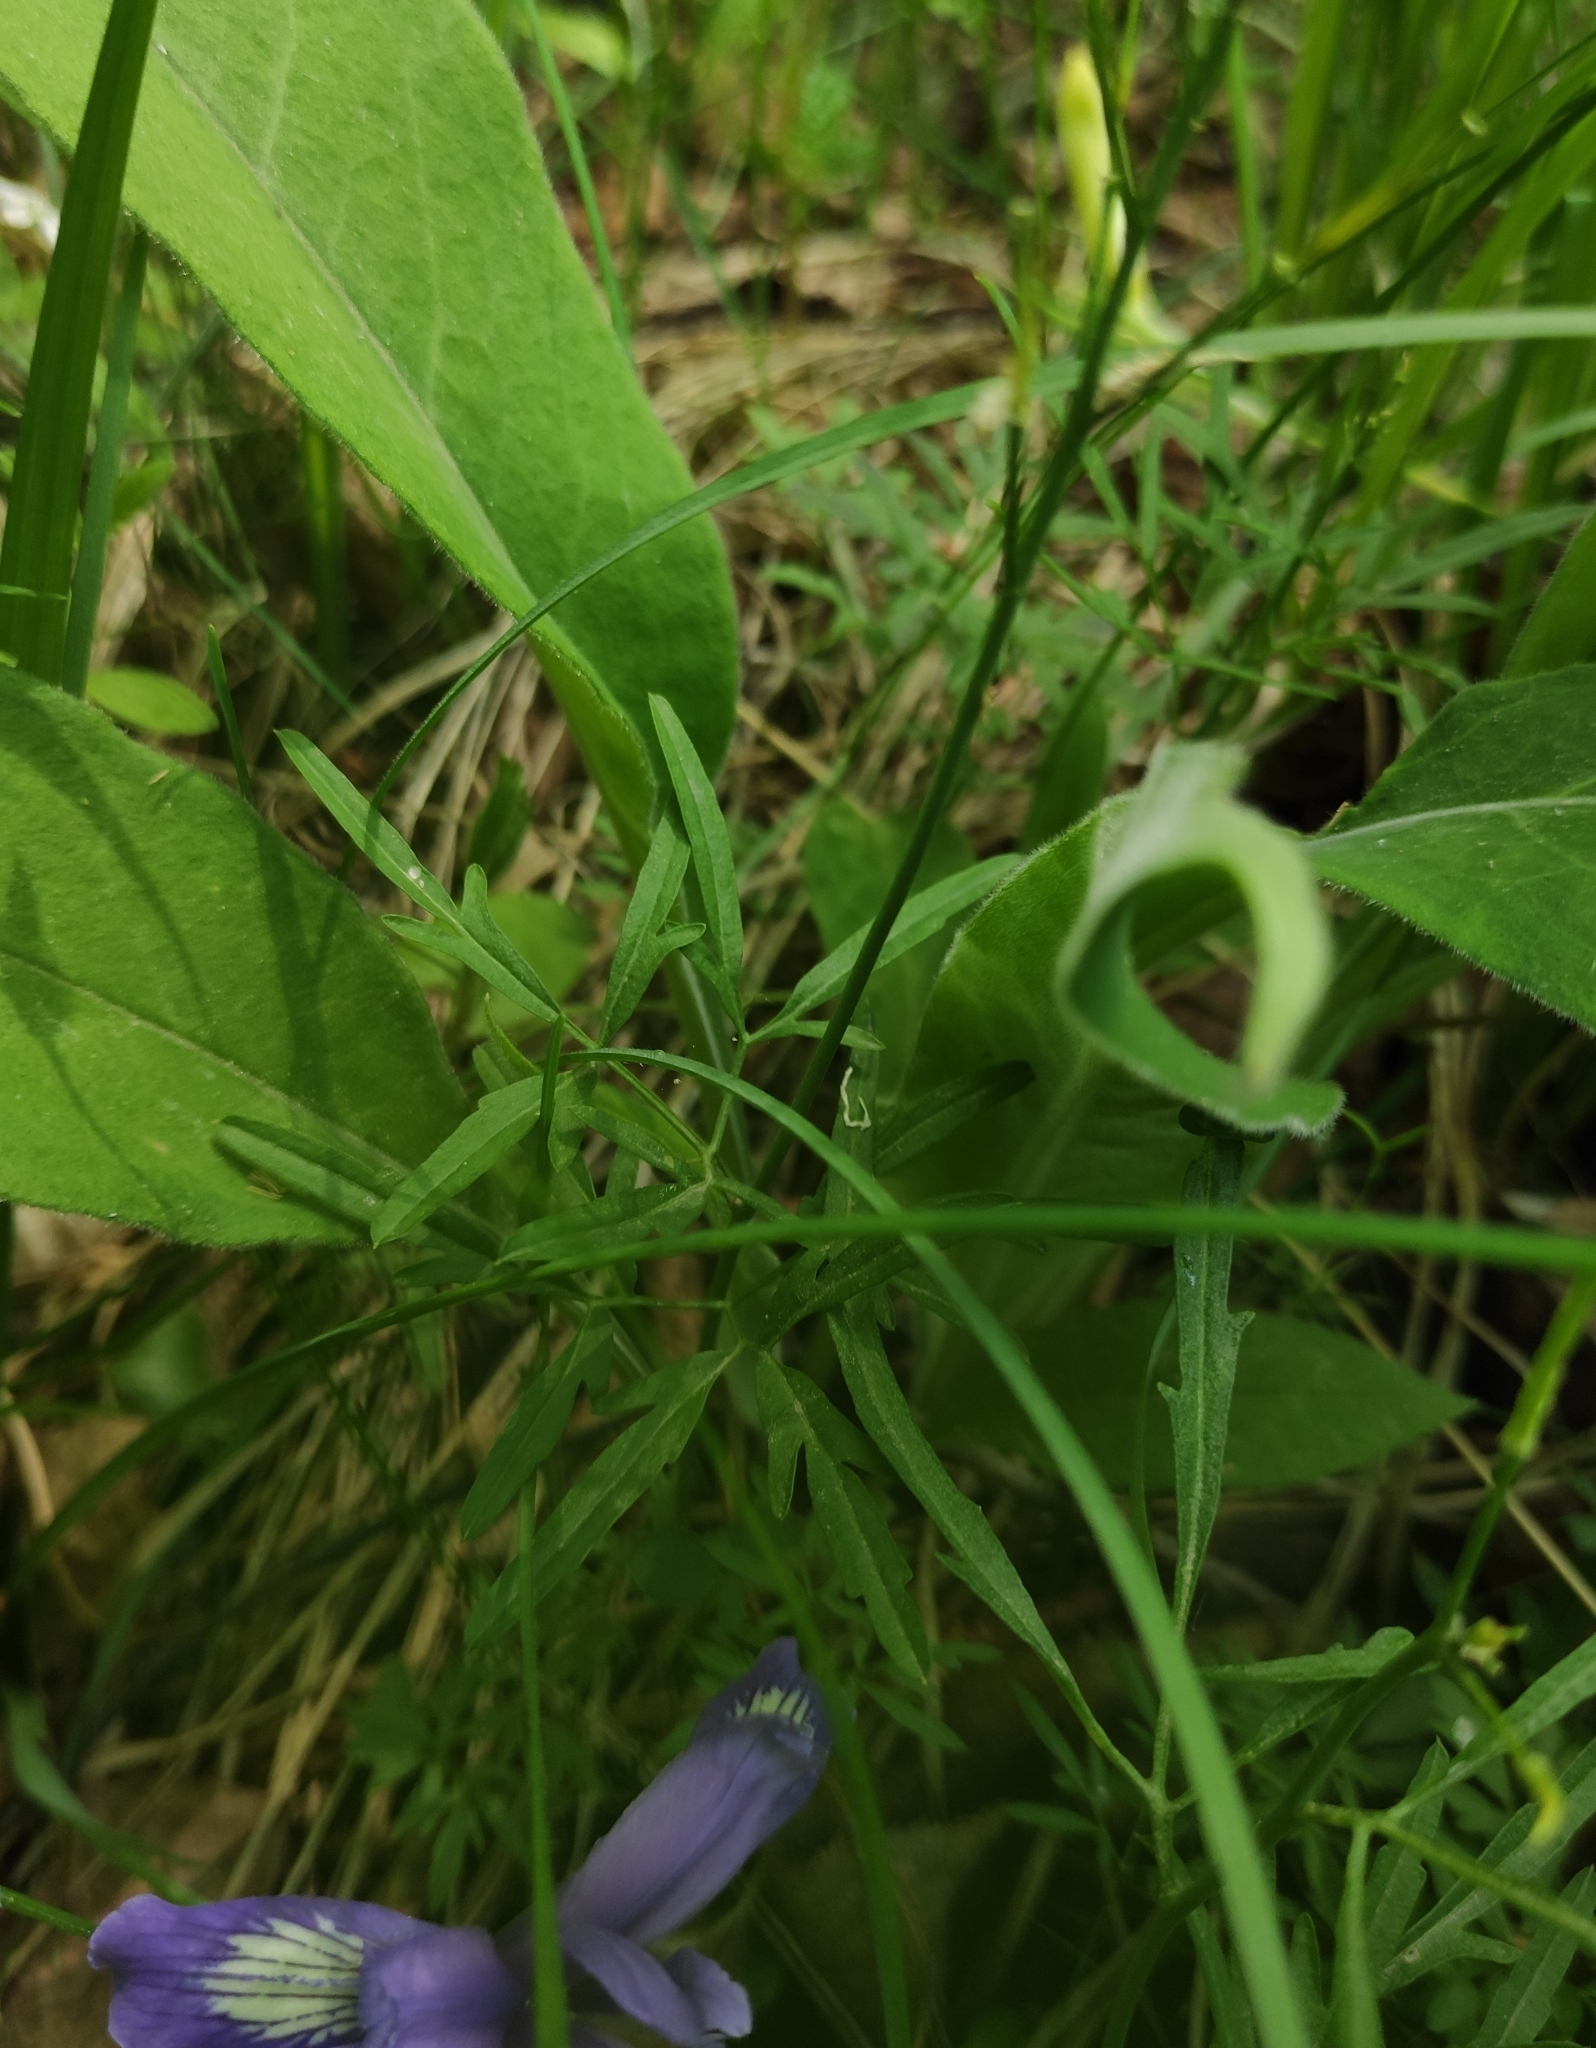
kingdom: Plantae
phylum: Tracheophyta
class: Magnoliopsida
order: Brassicales
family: Brassicaceae
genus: Cardamine
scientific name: Cardamine trifida
